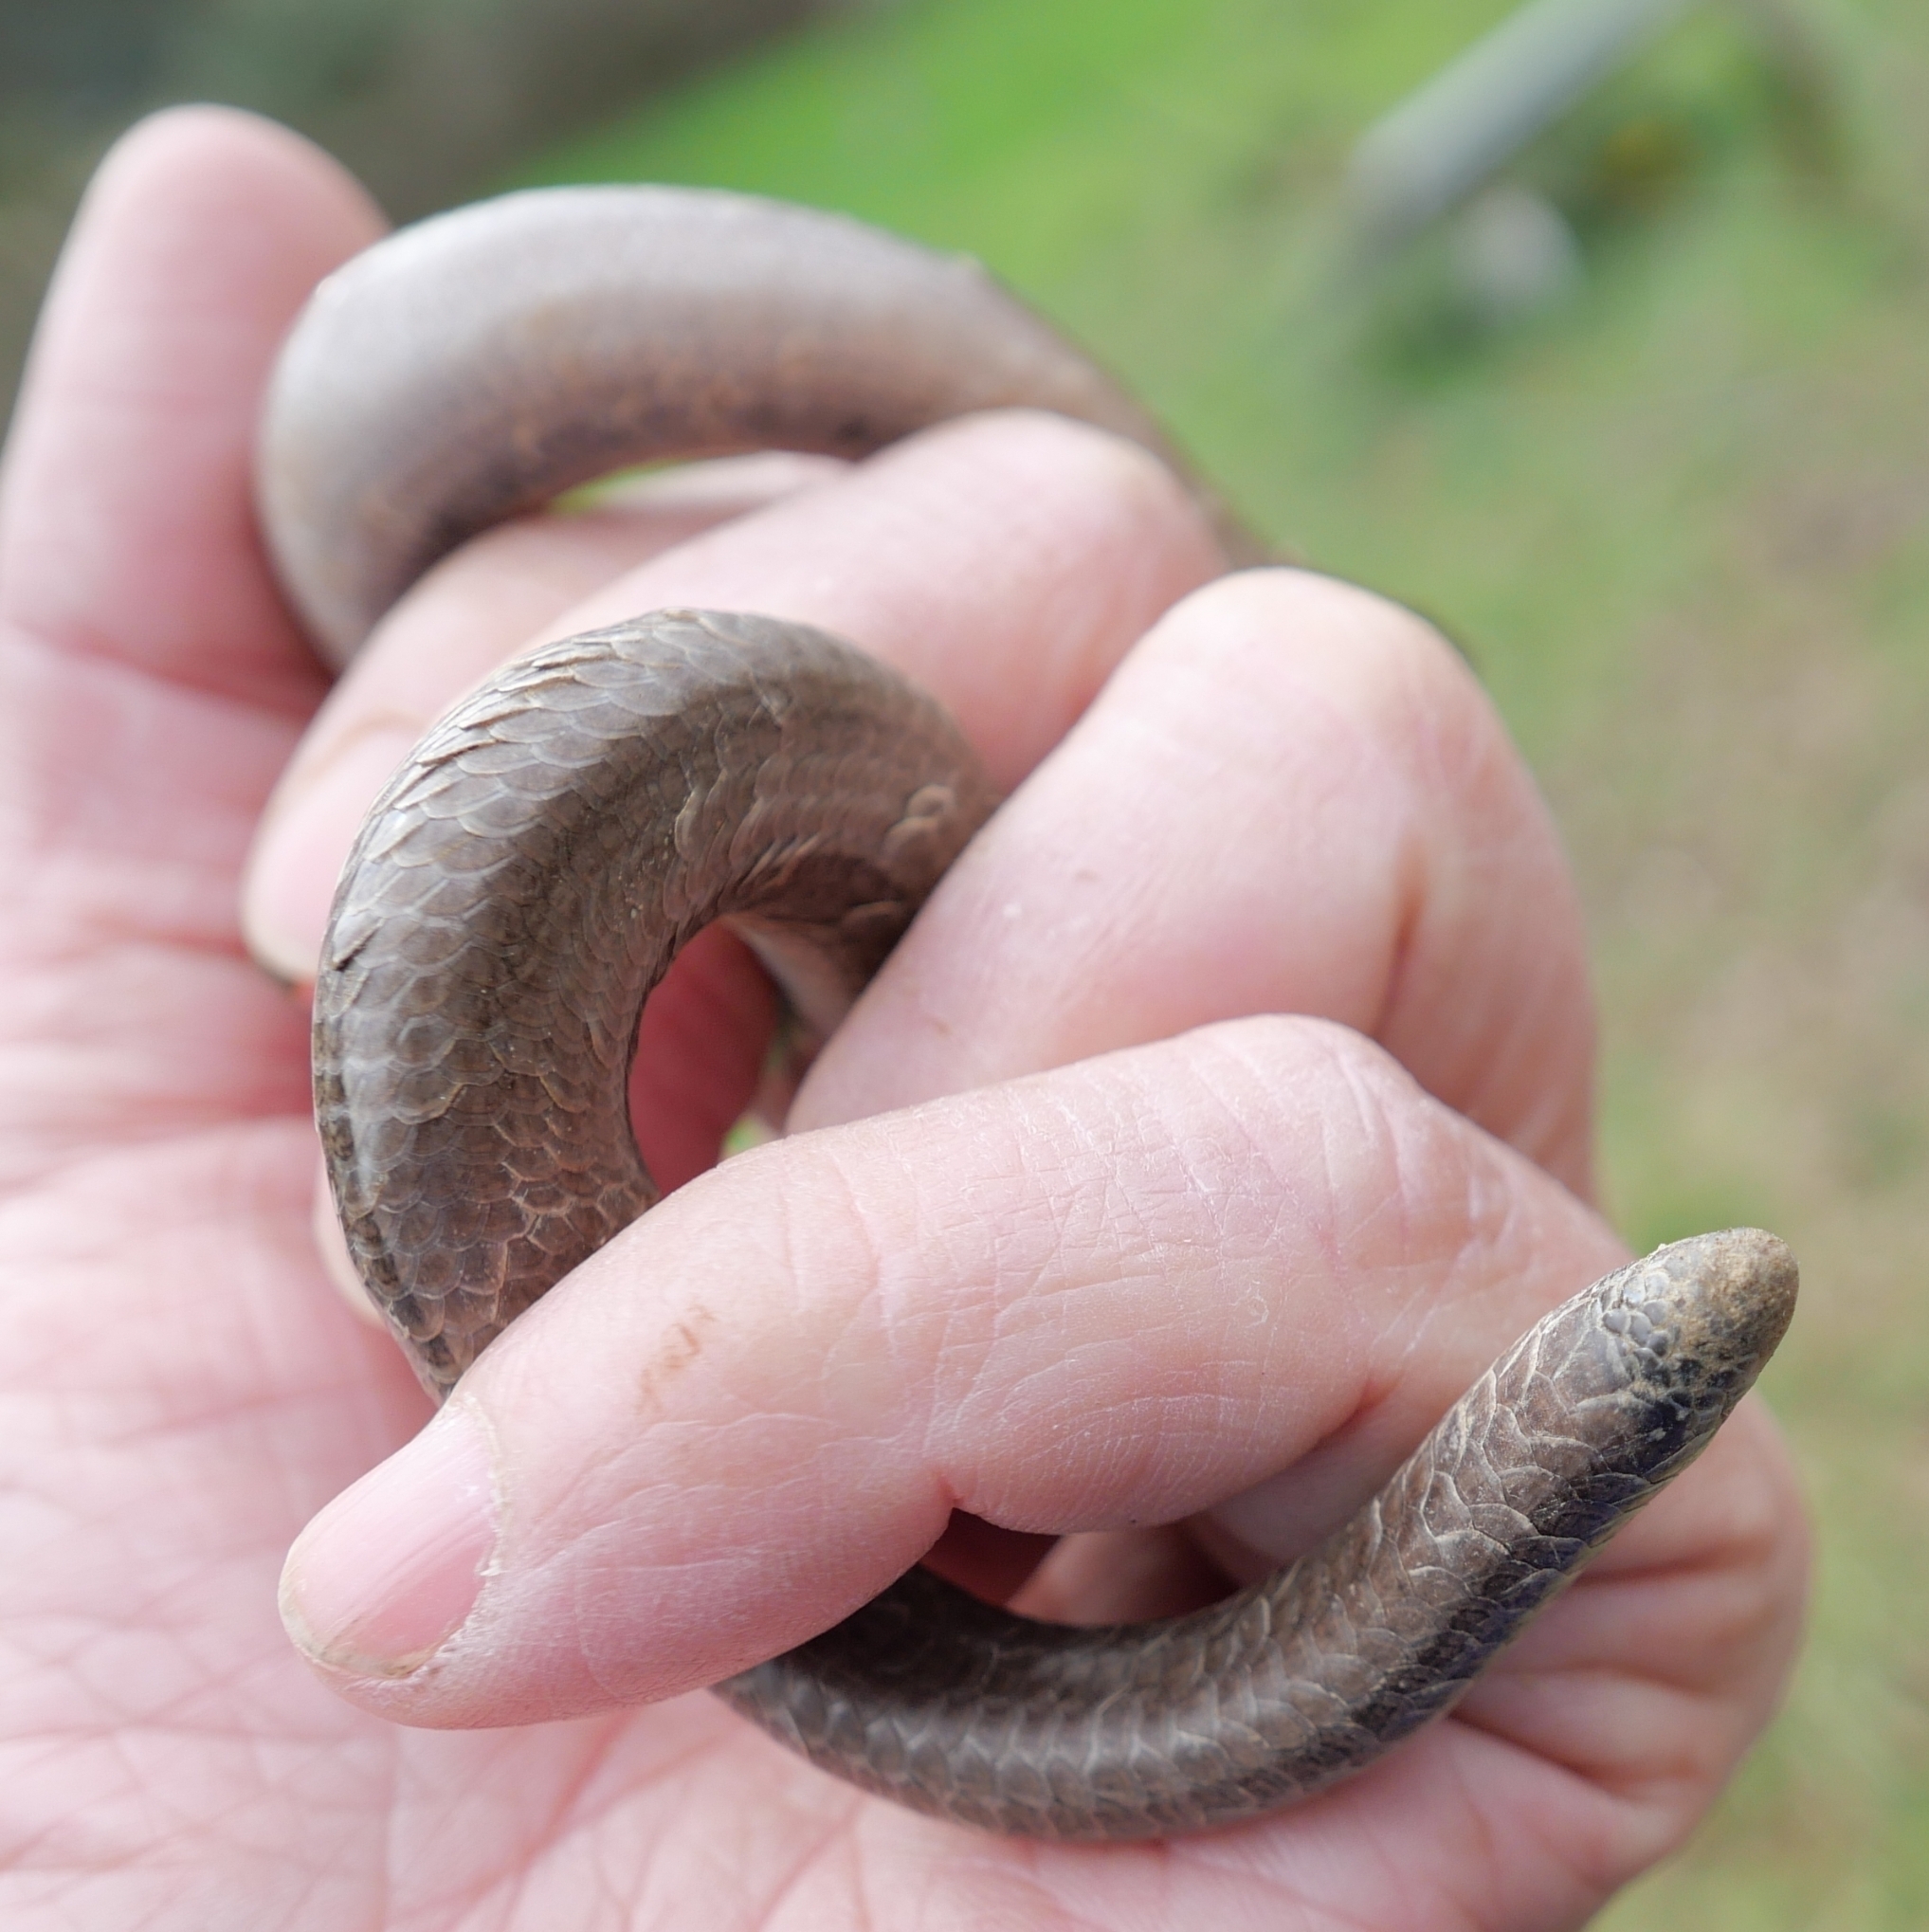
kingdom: Animalia
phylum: Chordata
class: Squamata
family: Anguidae
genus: Anguis
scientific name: Anguis
